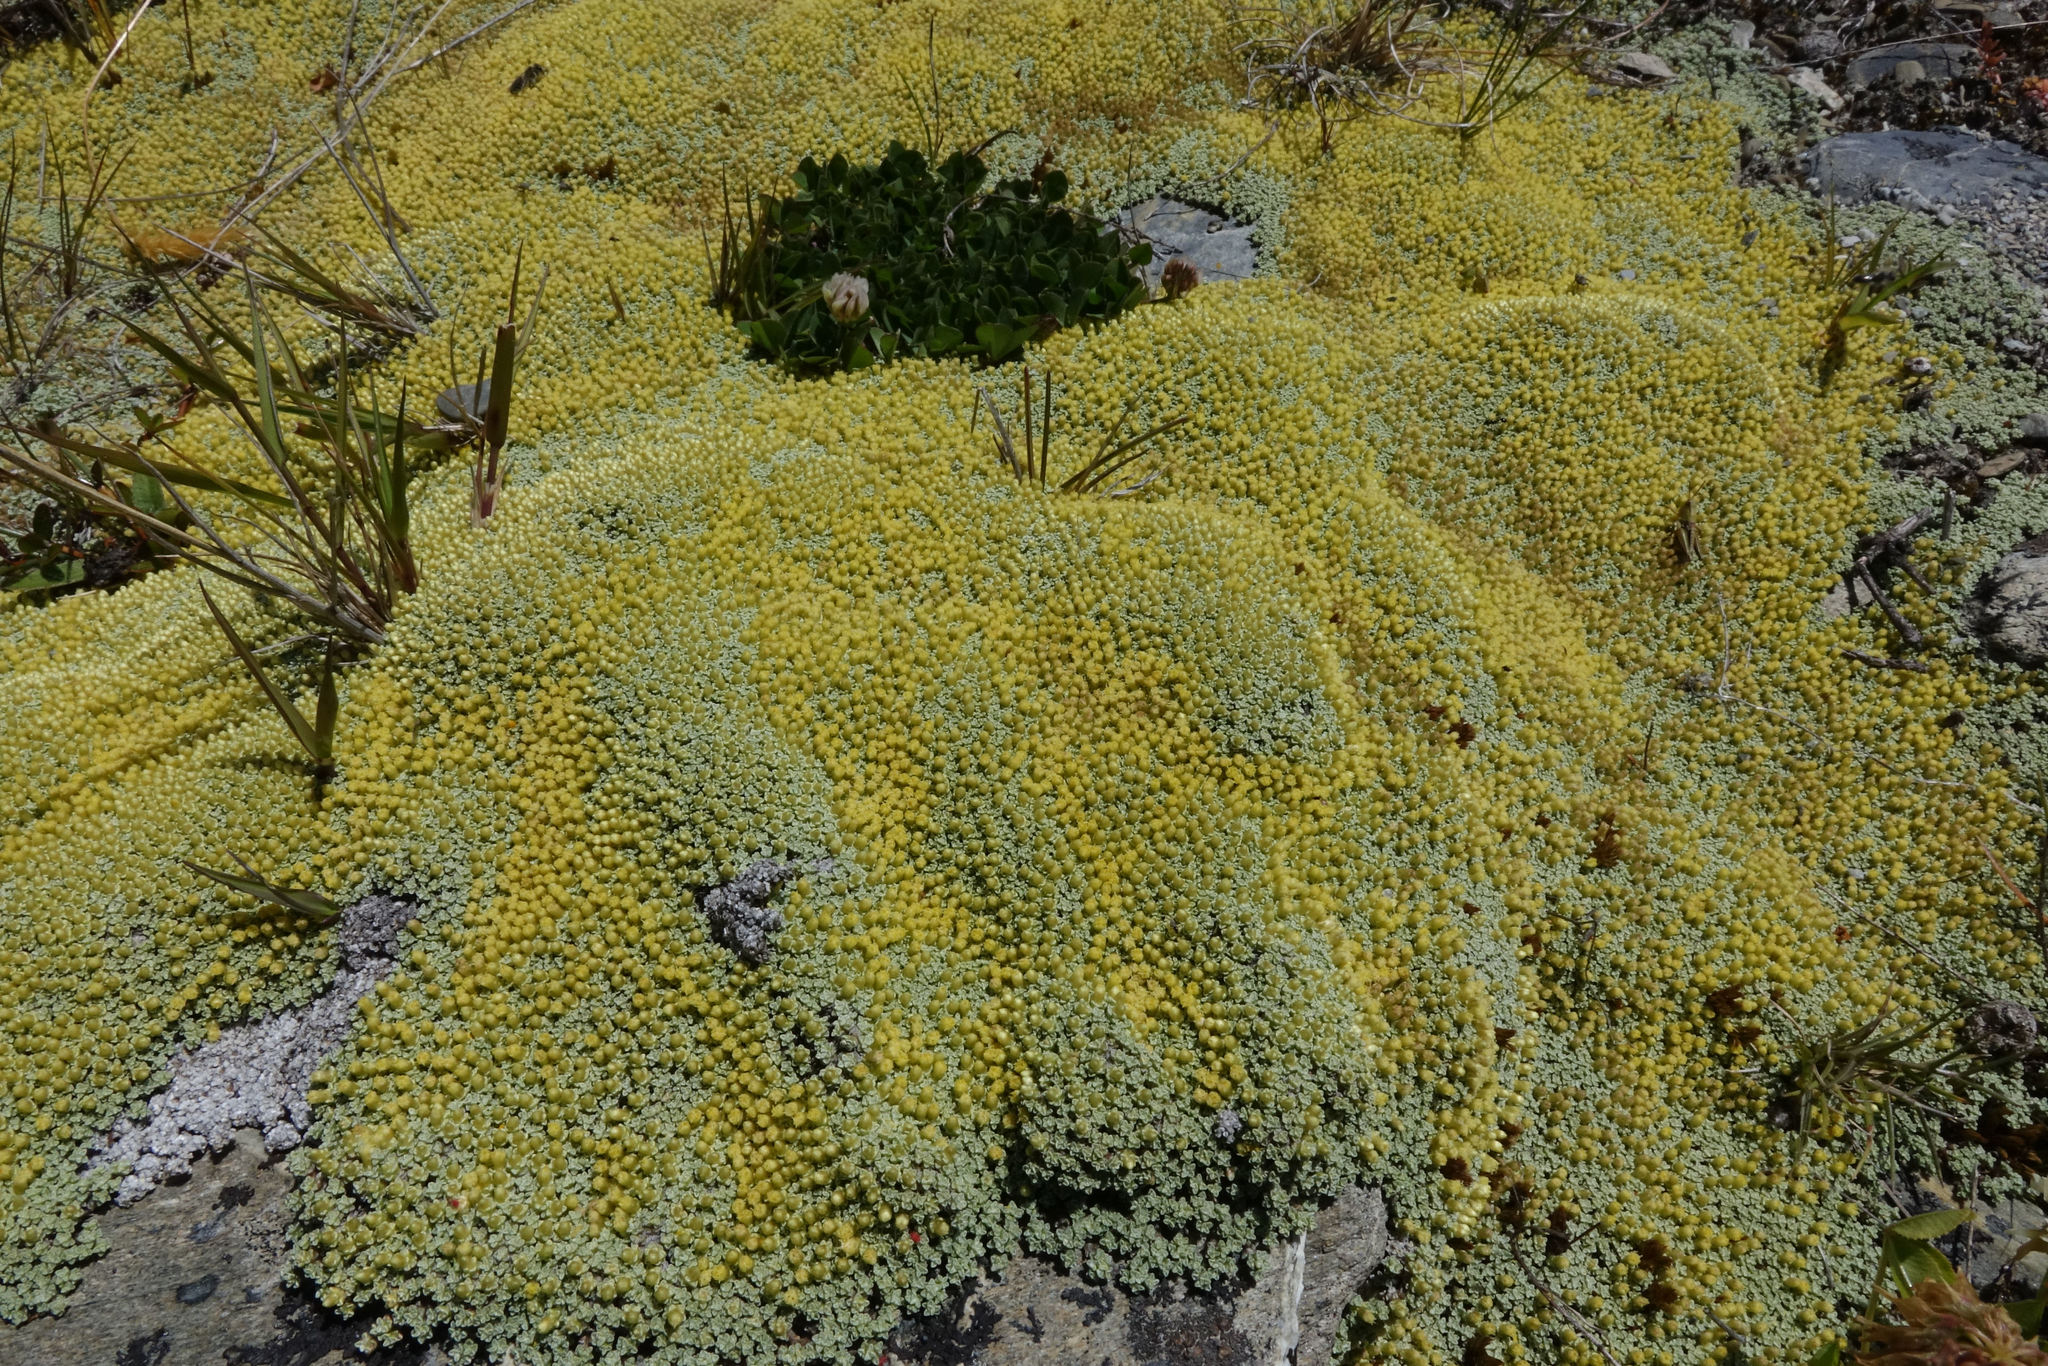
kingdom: Plantae
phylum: Tracheophyta
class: Magnoliopsida
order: Asterales
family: Asteraceae
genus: Raoulia
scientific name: Raoulia australis
